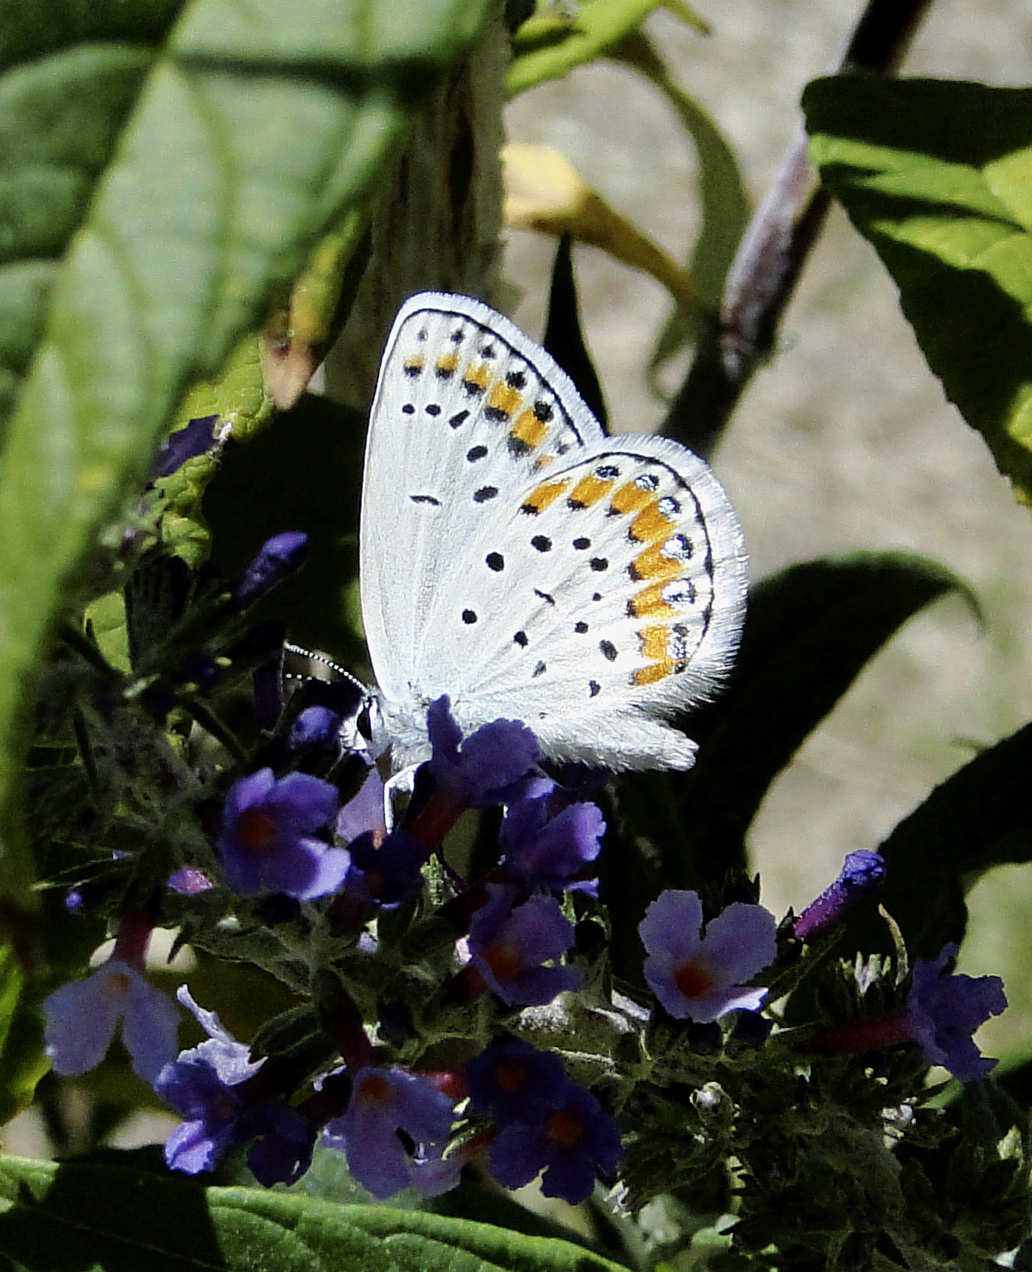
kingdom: Animalia
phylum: Arthropoda
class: Insecta
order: Lepidoptera
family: Lycaenidae
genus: Lycaeides
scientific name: Lycaeides melissa
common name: Melissa blue
